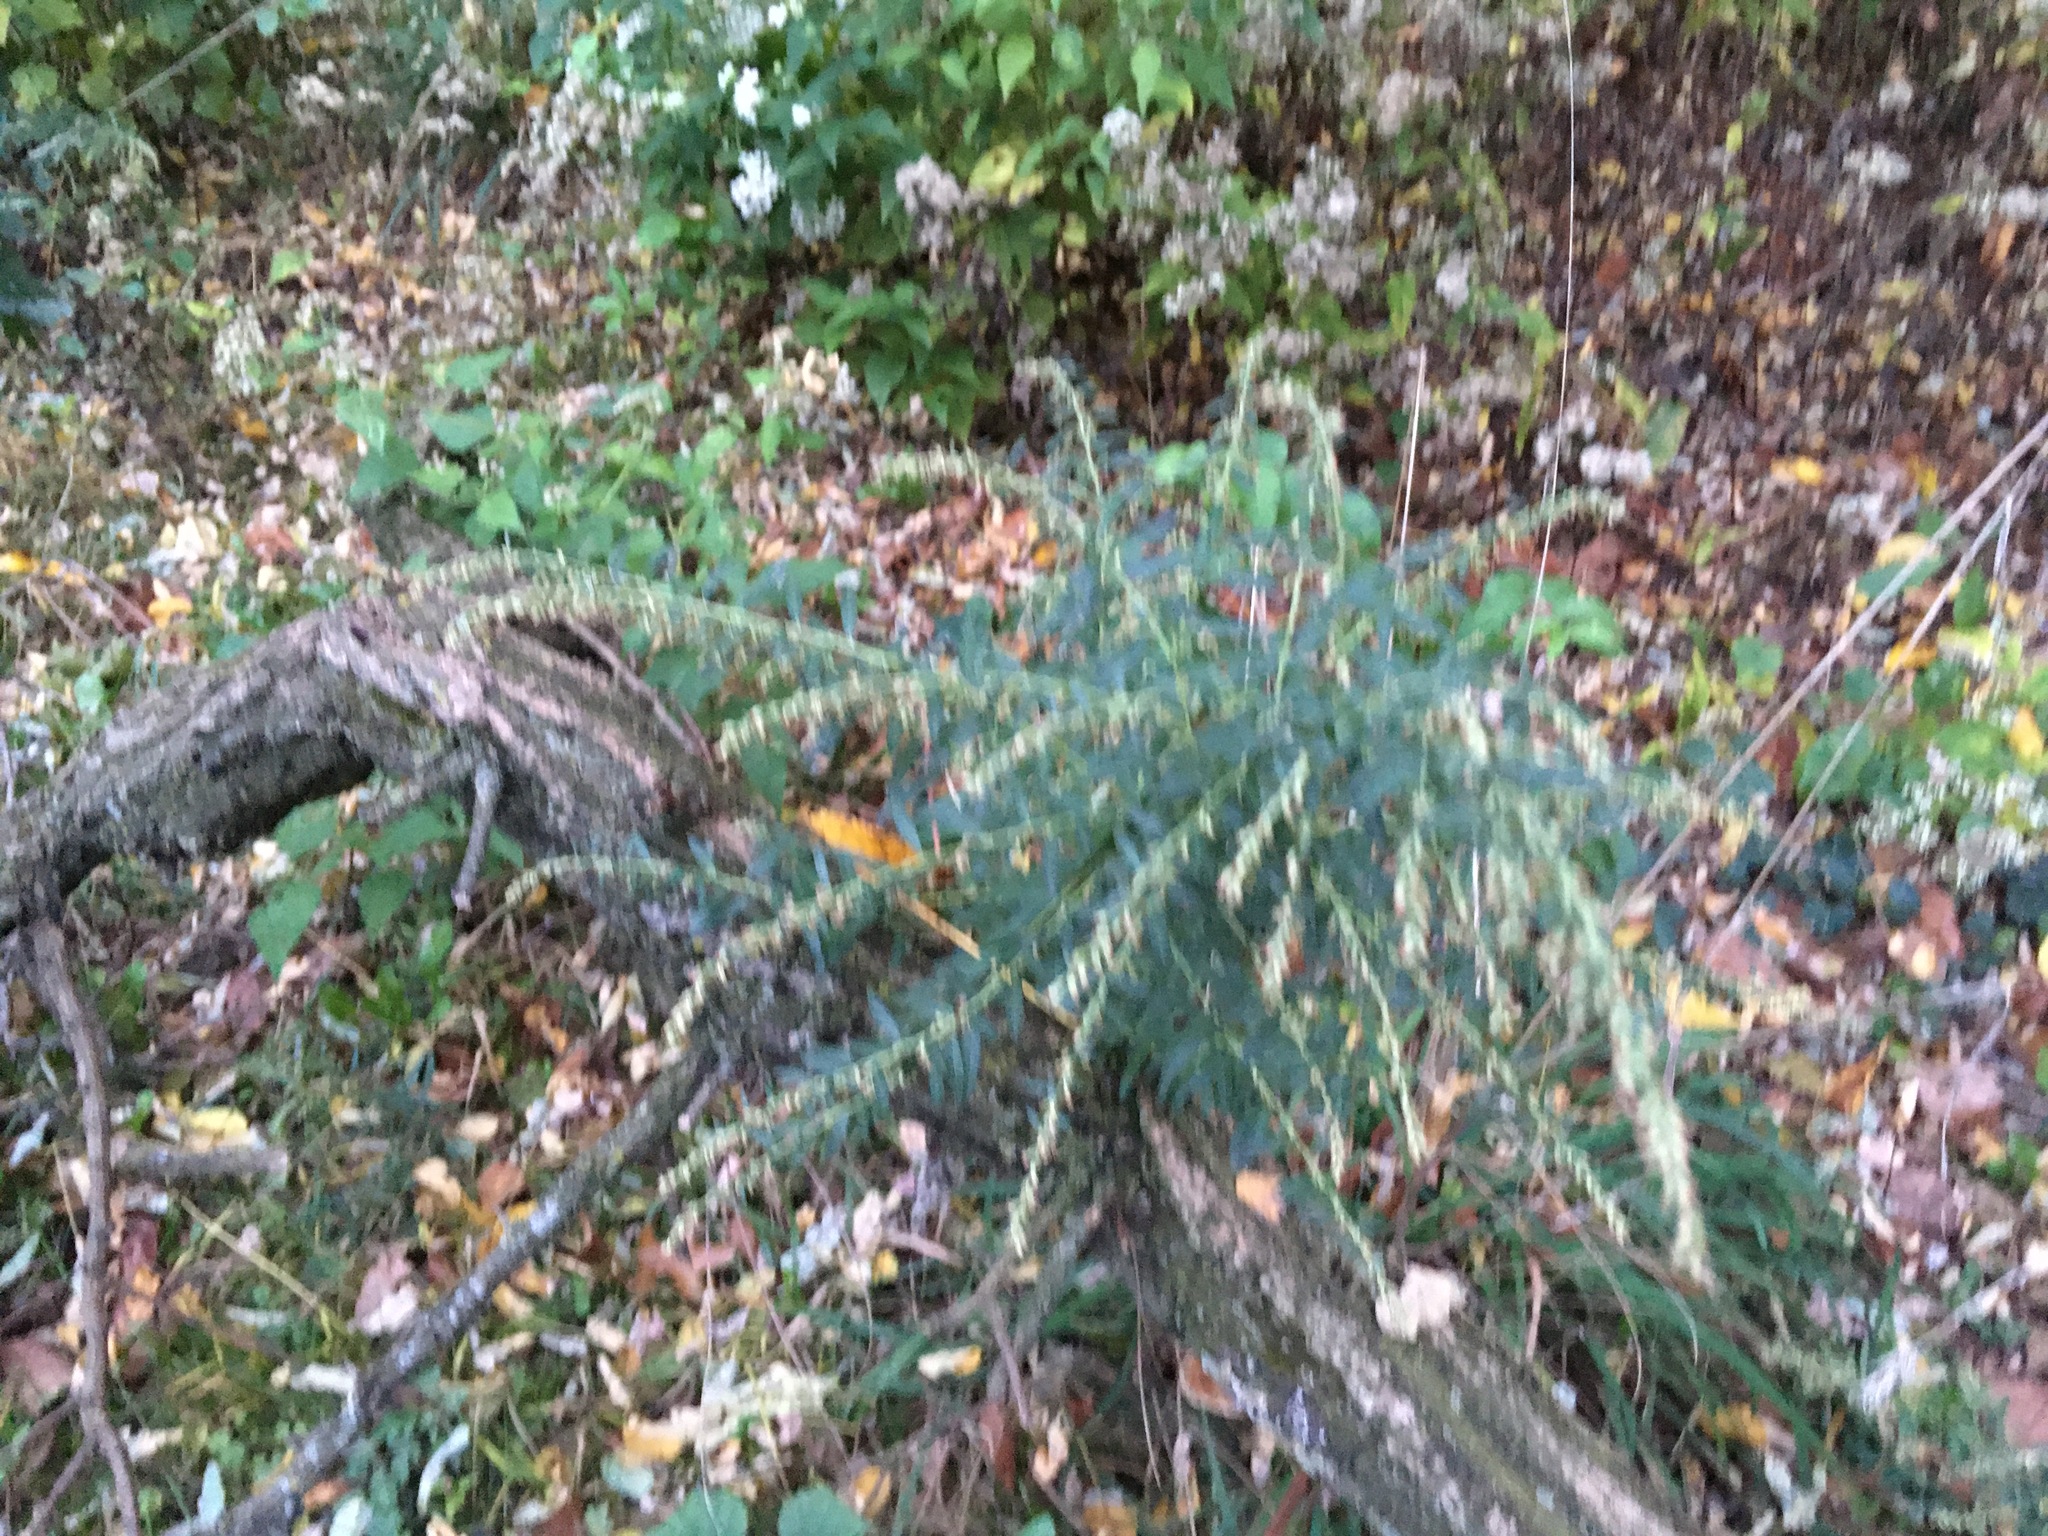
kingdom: Plantae
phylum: Tracheophyta
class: Magnoliopsida
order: Asterales
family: Asteraceae
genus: Artemisia
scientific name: Artemisia vulgaris
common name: Mugwort
